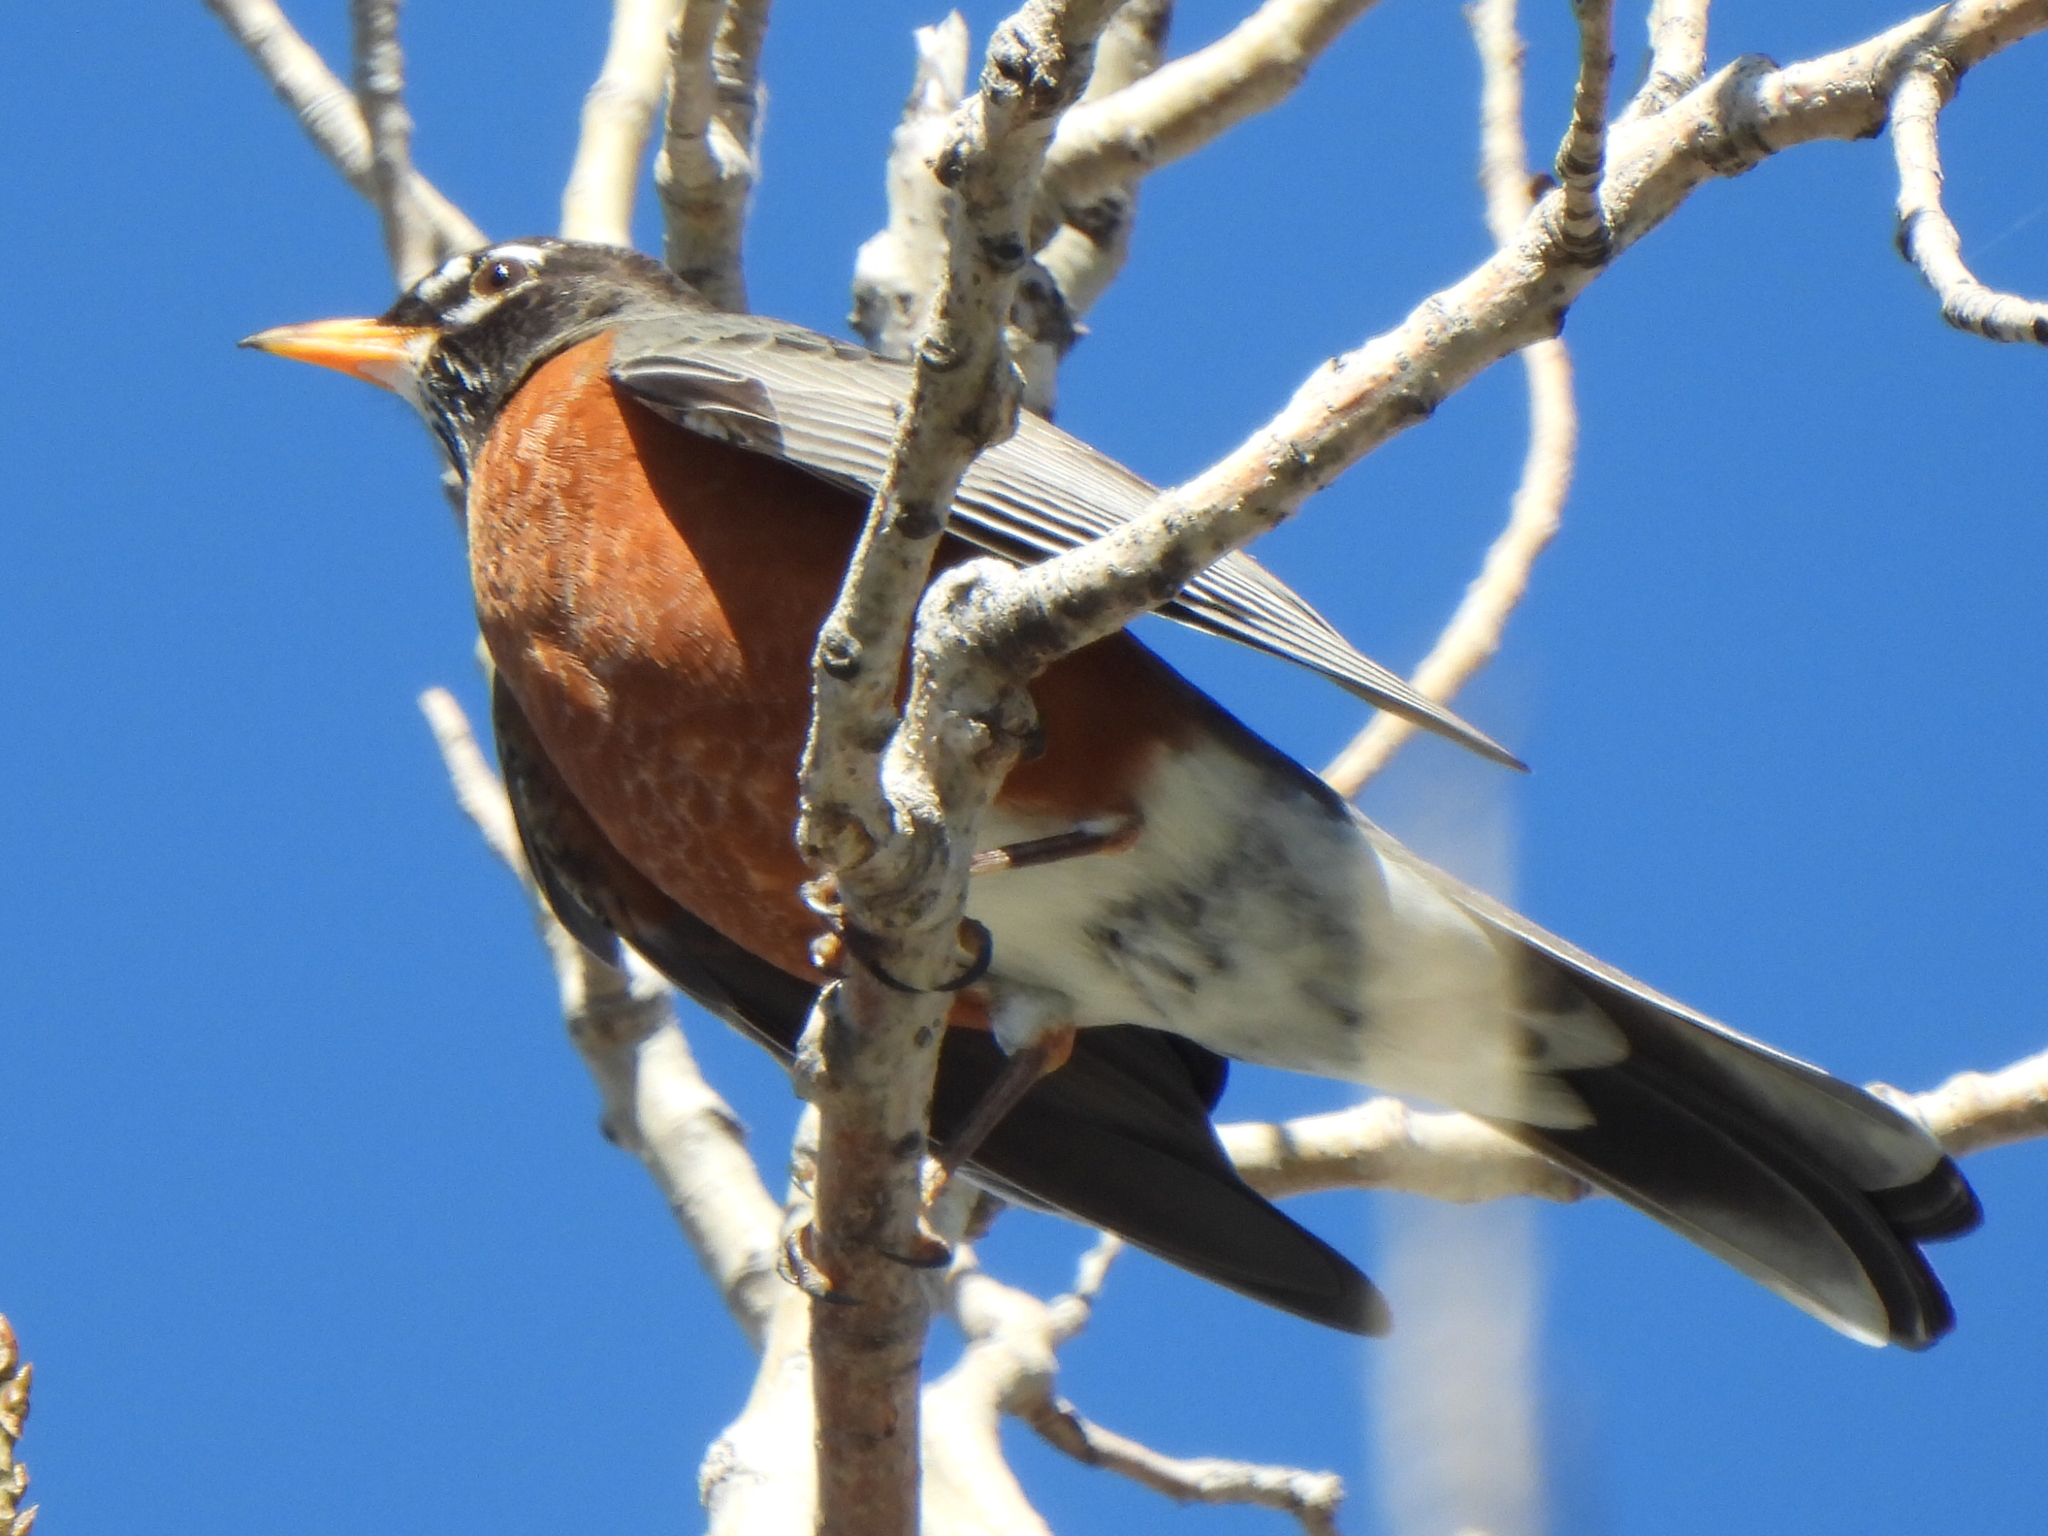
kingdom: Animalia
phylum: Chordata
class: Aves
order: Passeriformes
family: Turdidae
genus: Turdus
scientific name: Turdus migratorius
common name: American robin
